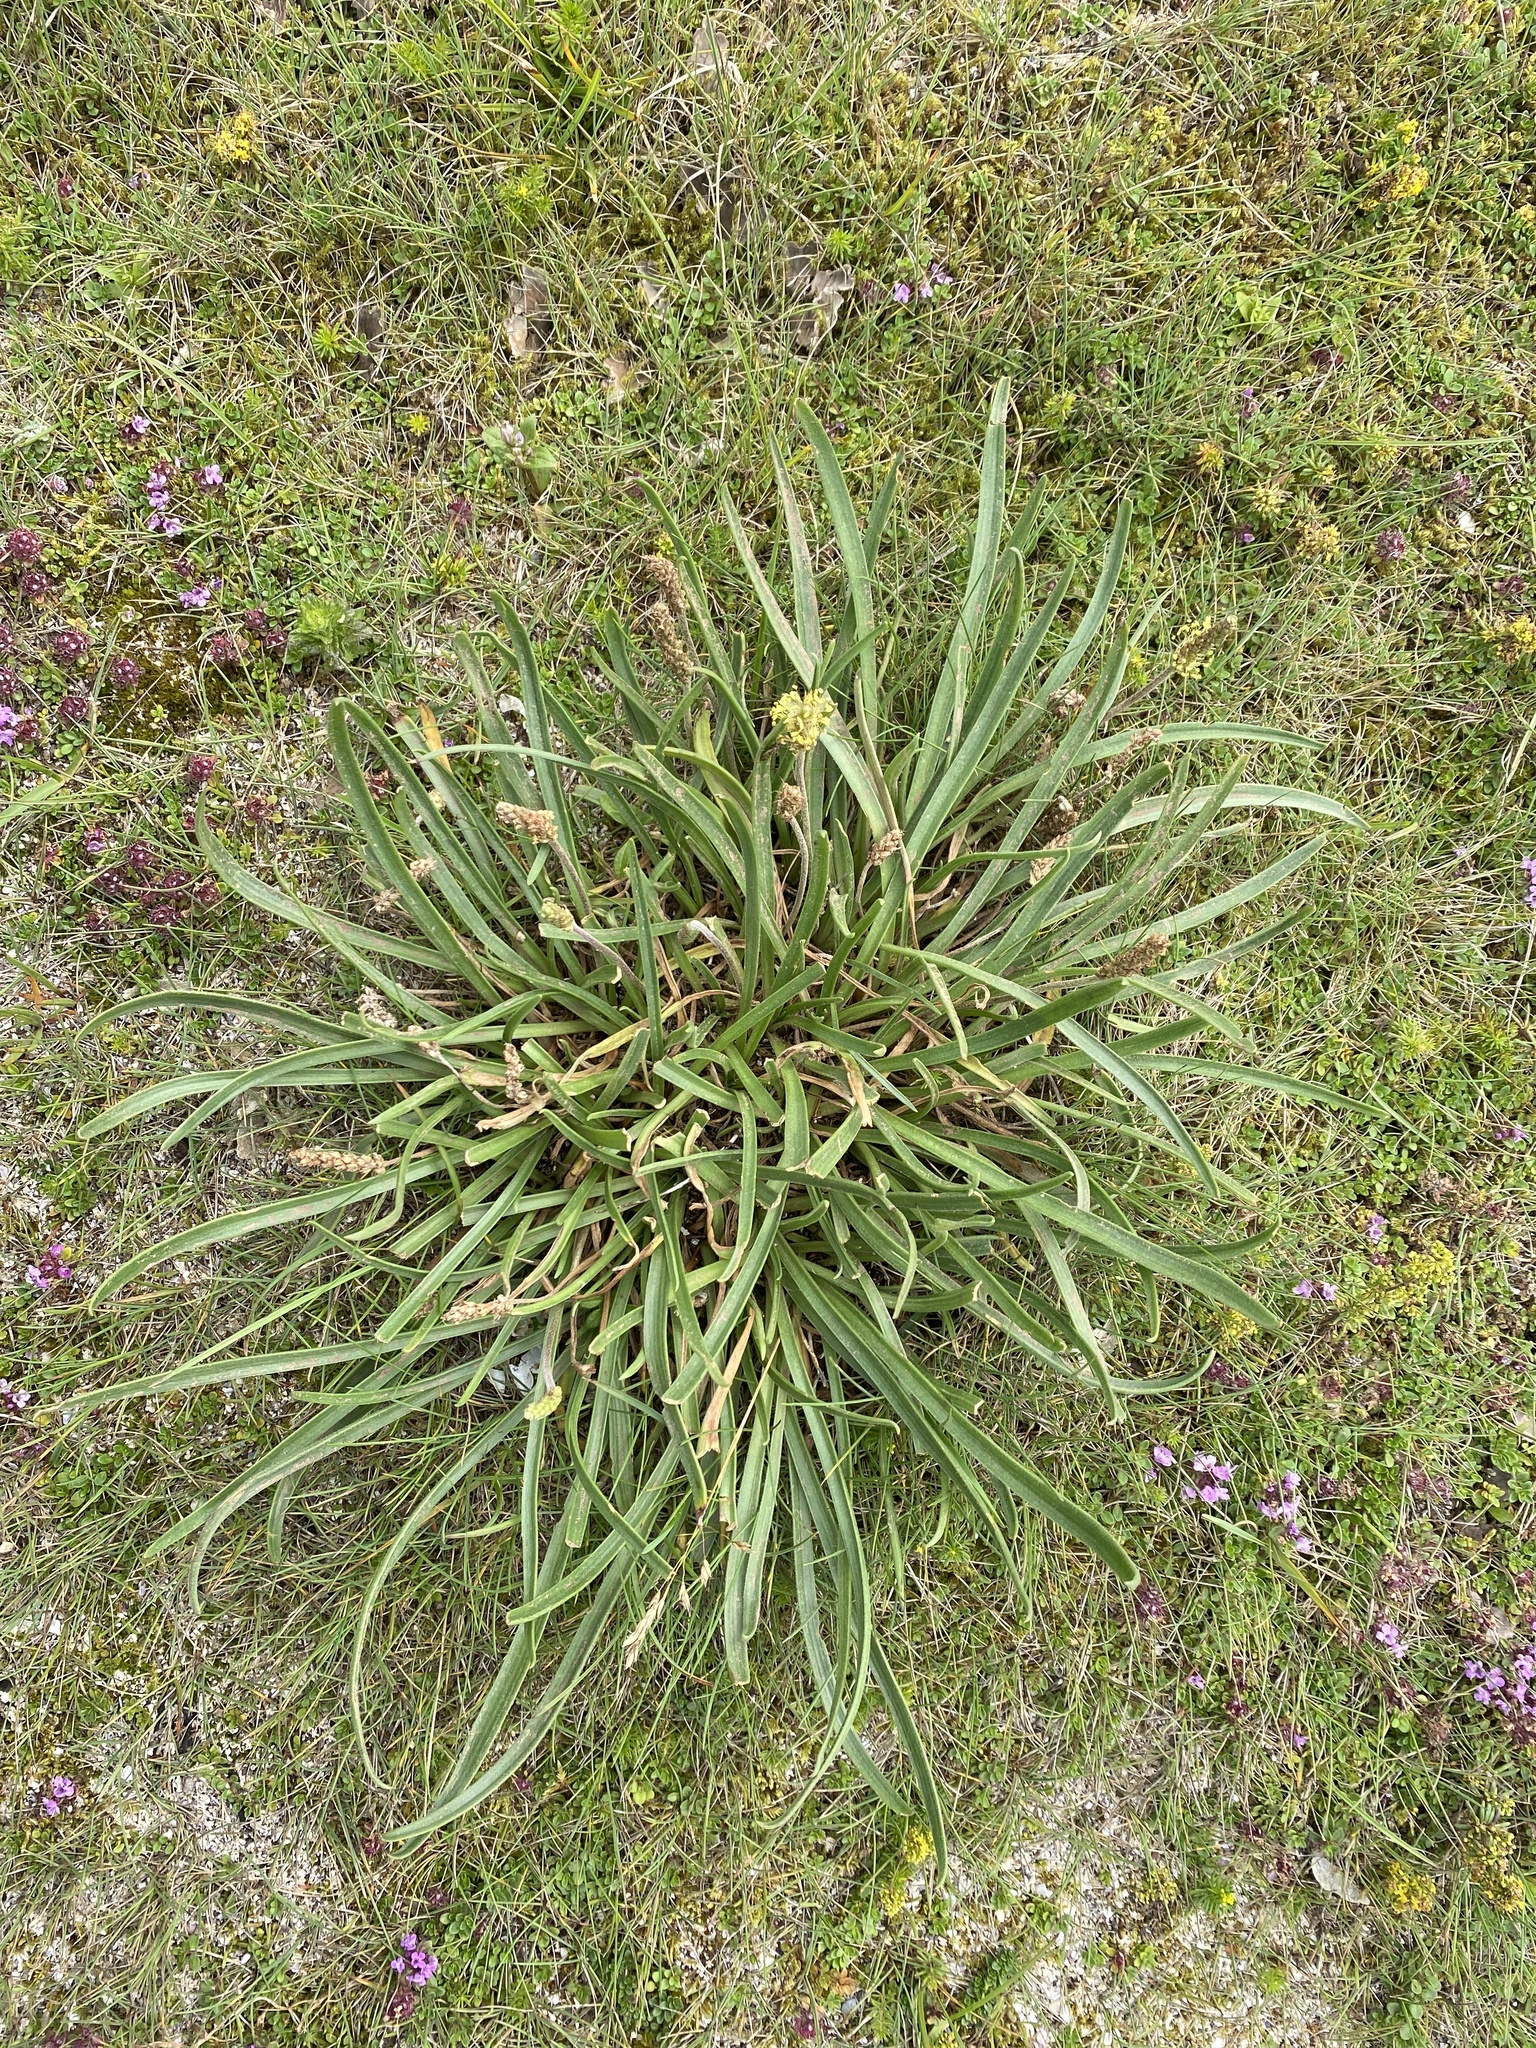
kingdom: Plantae
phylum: Tracheophyta
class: Magnoliopsida
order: Lamiales
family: Plantaginaceae
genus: Plantago
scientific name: Plantago maritima
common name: Sea plantain
